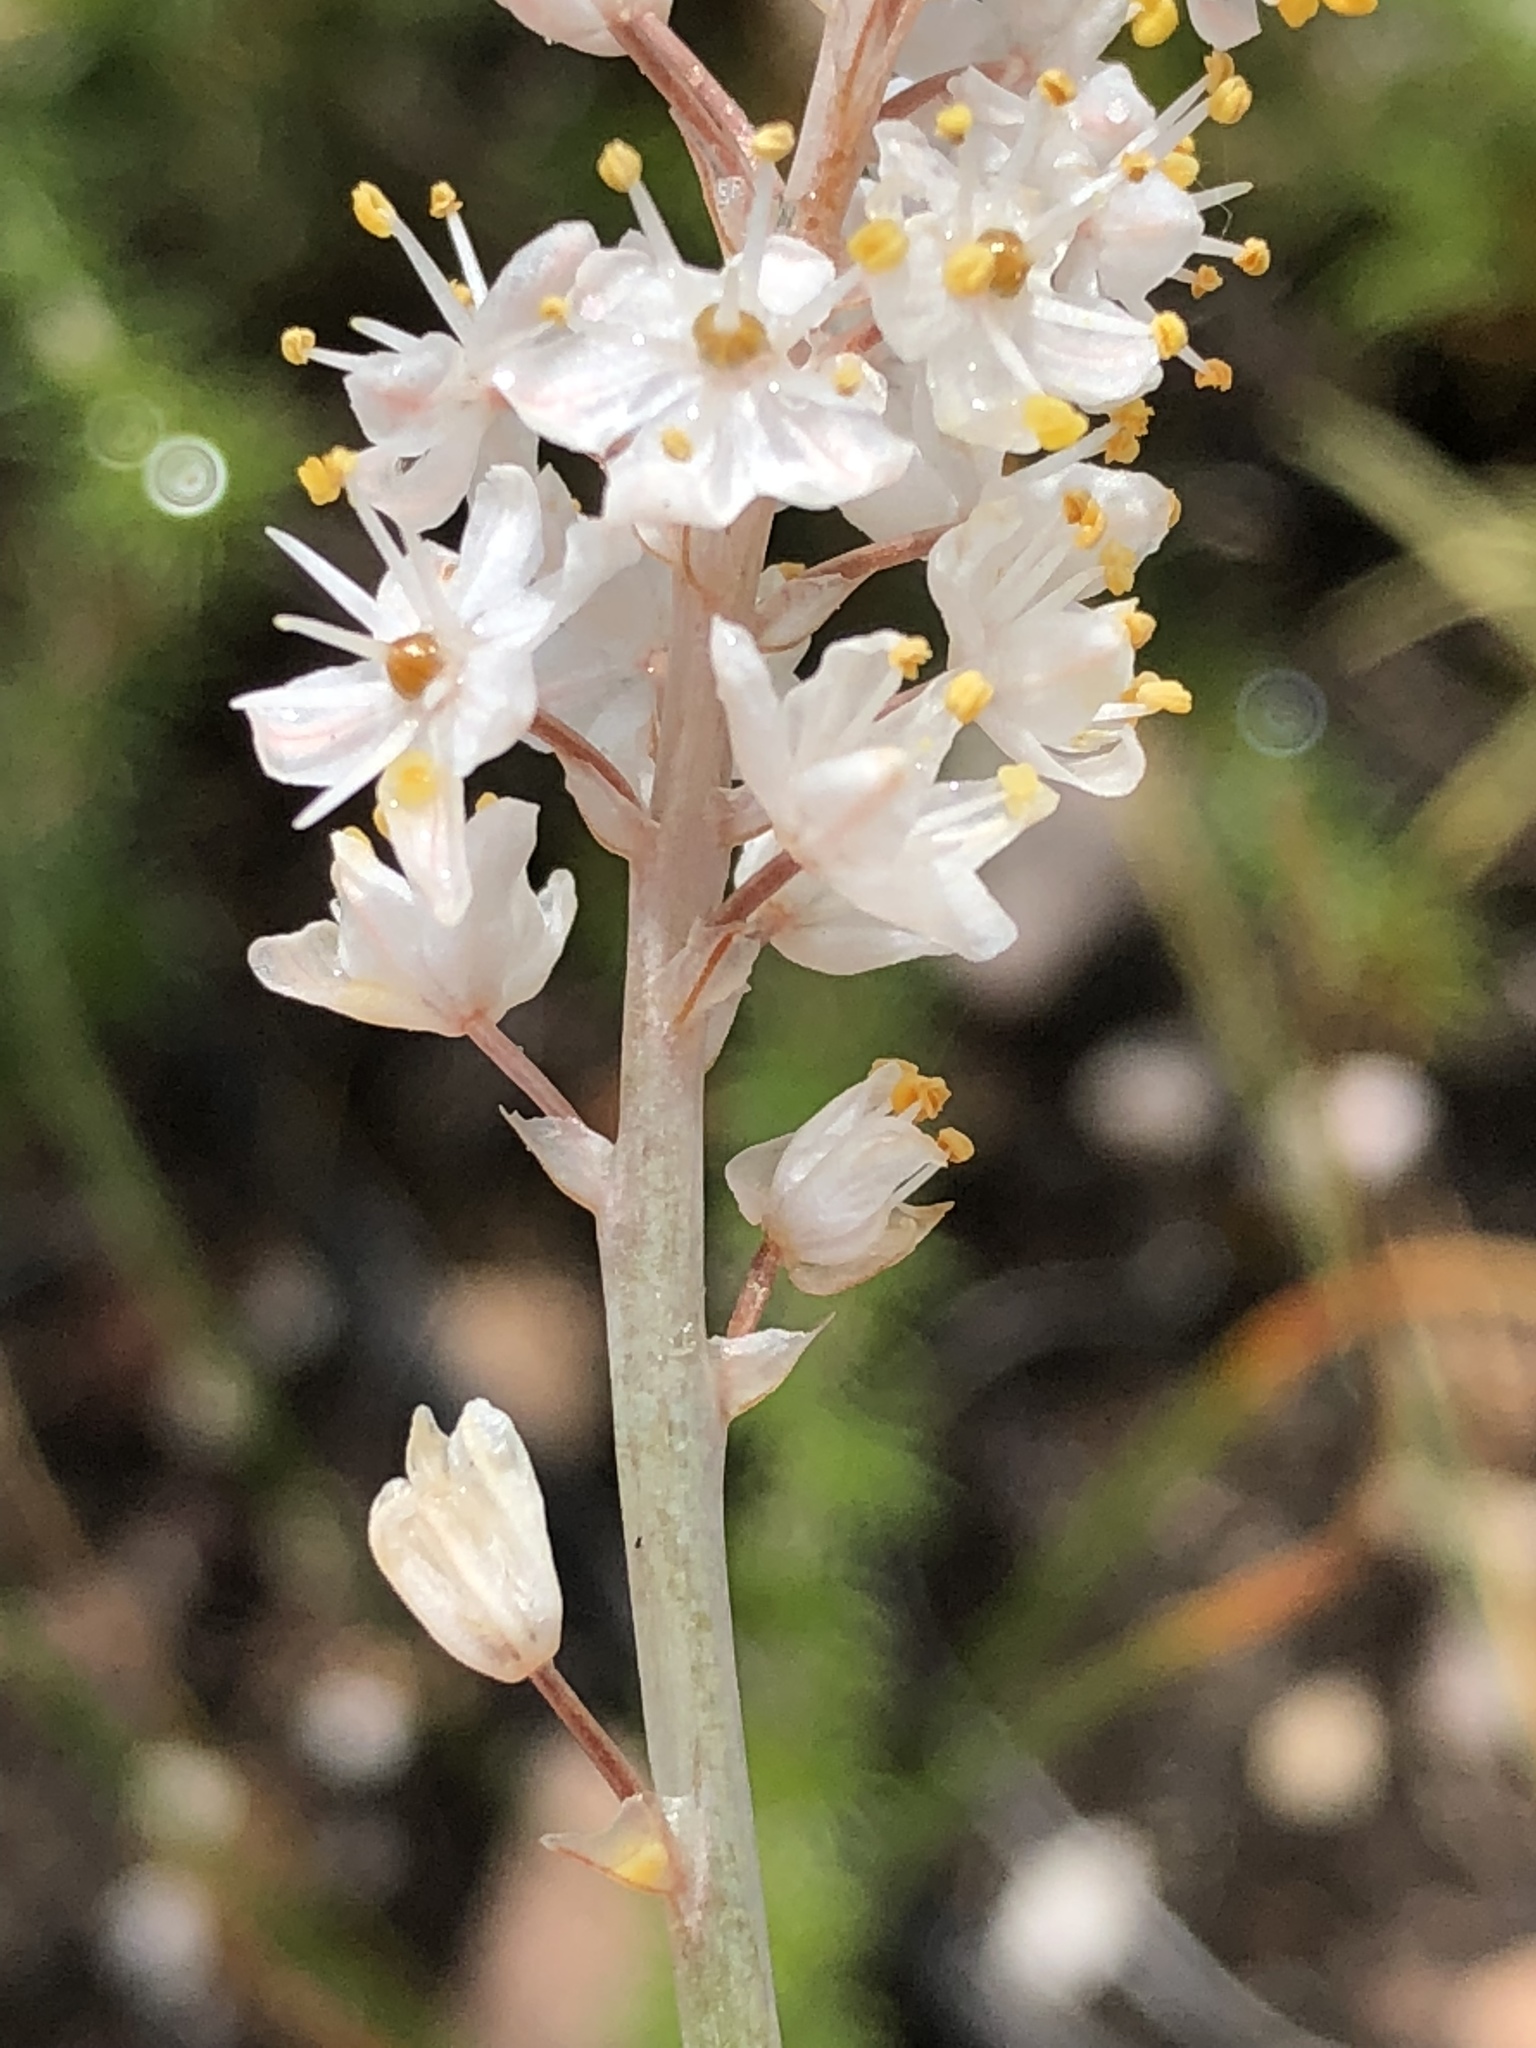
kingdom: Plantae
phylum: Tracheophyta
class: Liliopsida
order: Asparagales
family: Asphodelaceae
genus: Bulbinella
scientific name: Bulbinella cauda-felis
